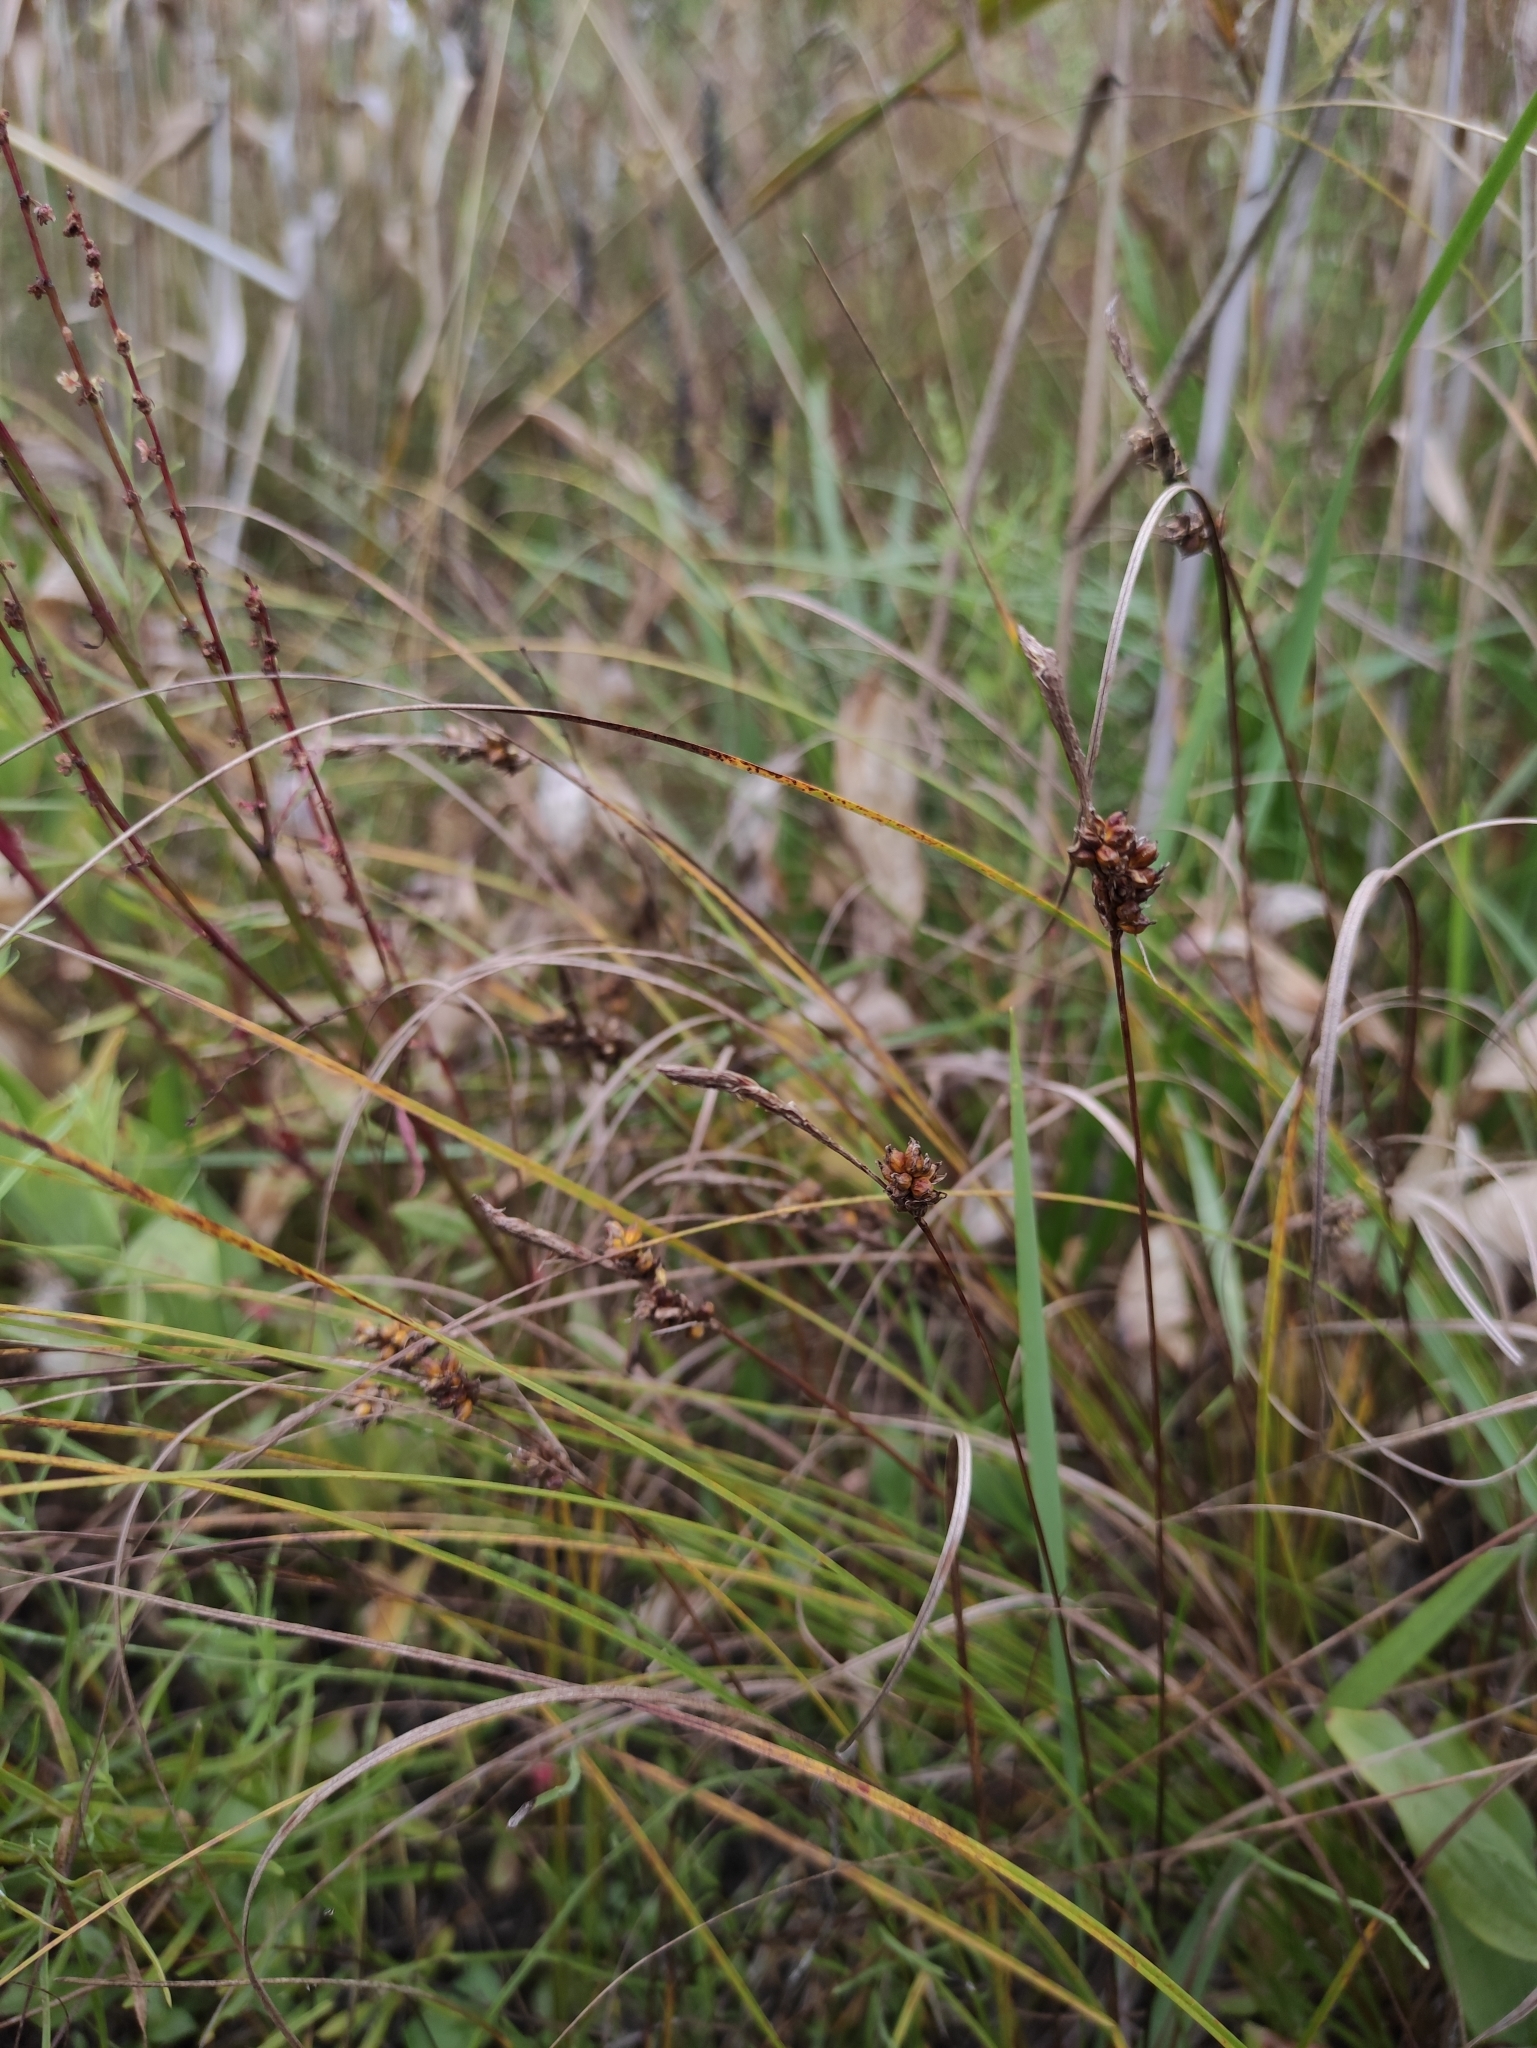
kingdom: Plantae
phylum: Tracheophyta
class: Liliopsida
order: Poales
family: Cyperaceae
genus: Carex
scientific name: Carex korshinskyi
